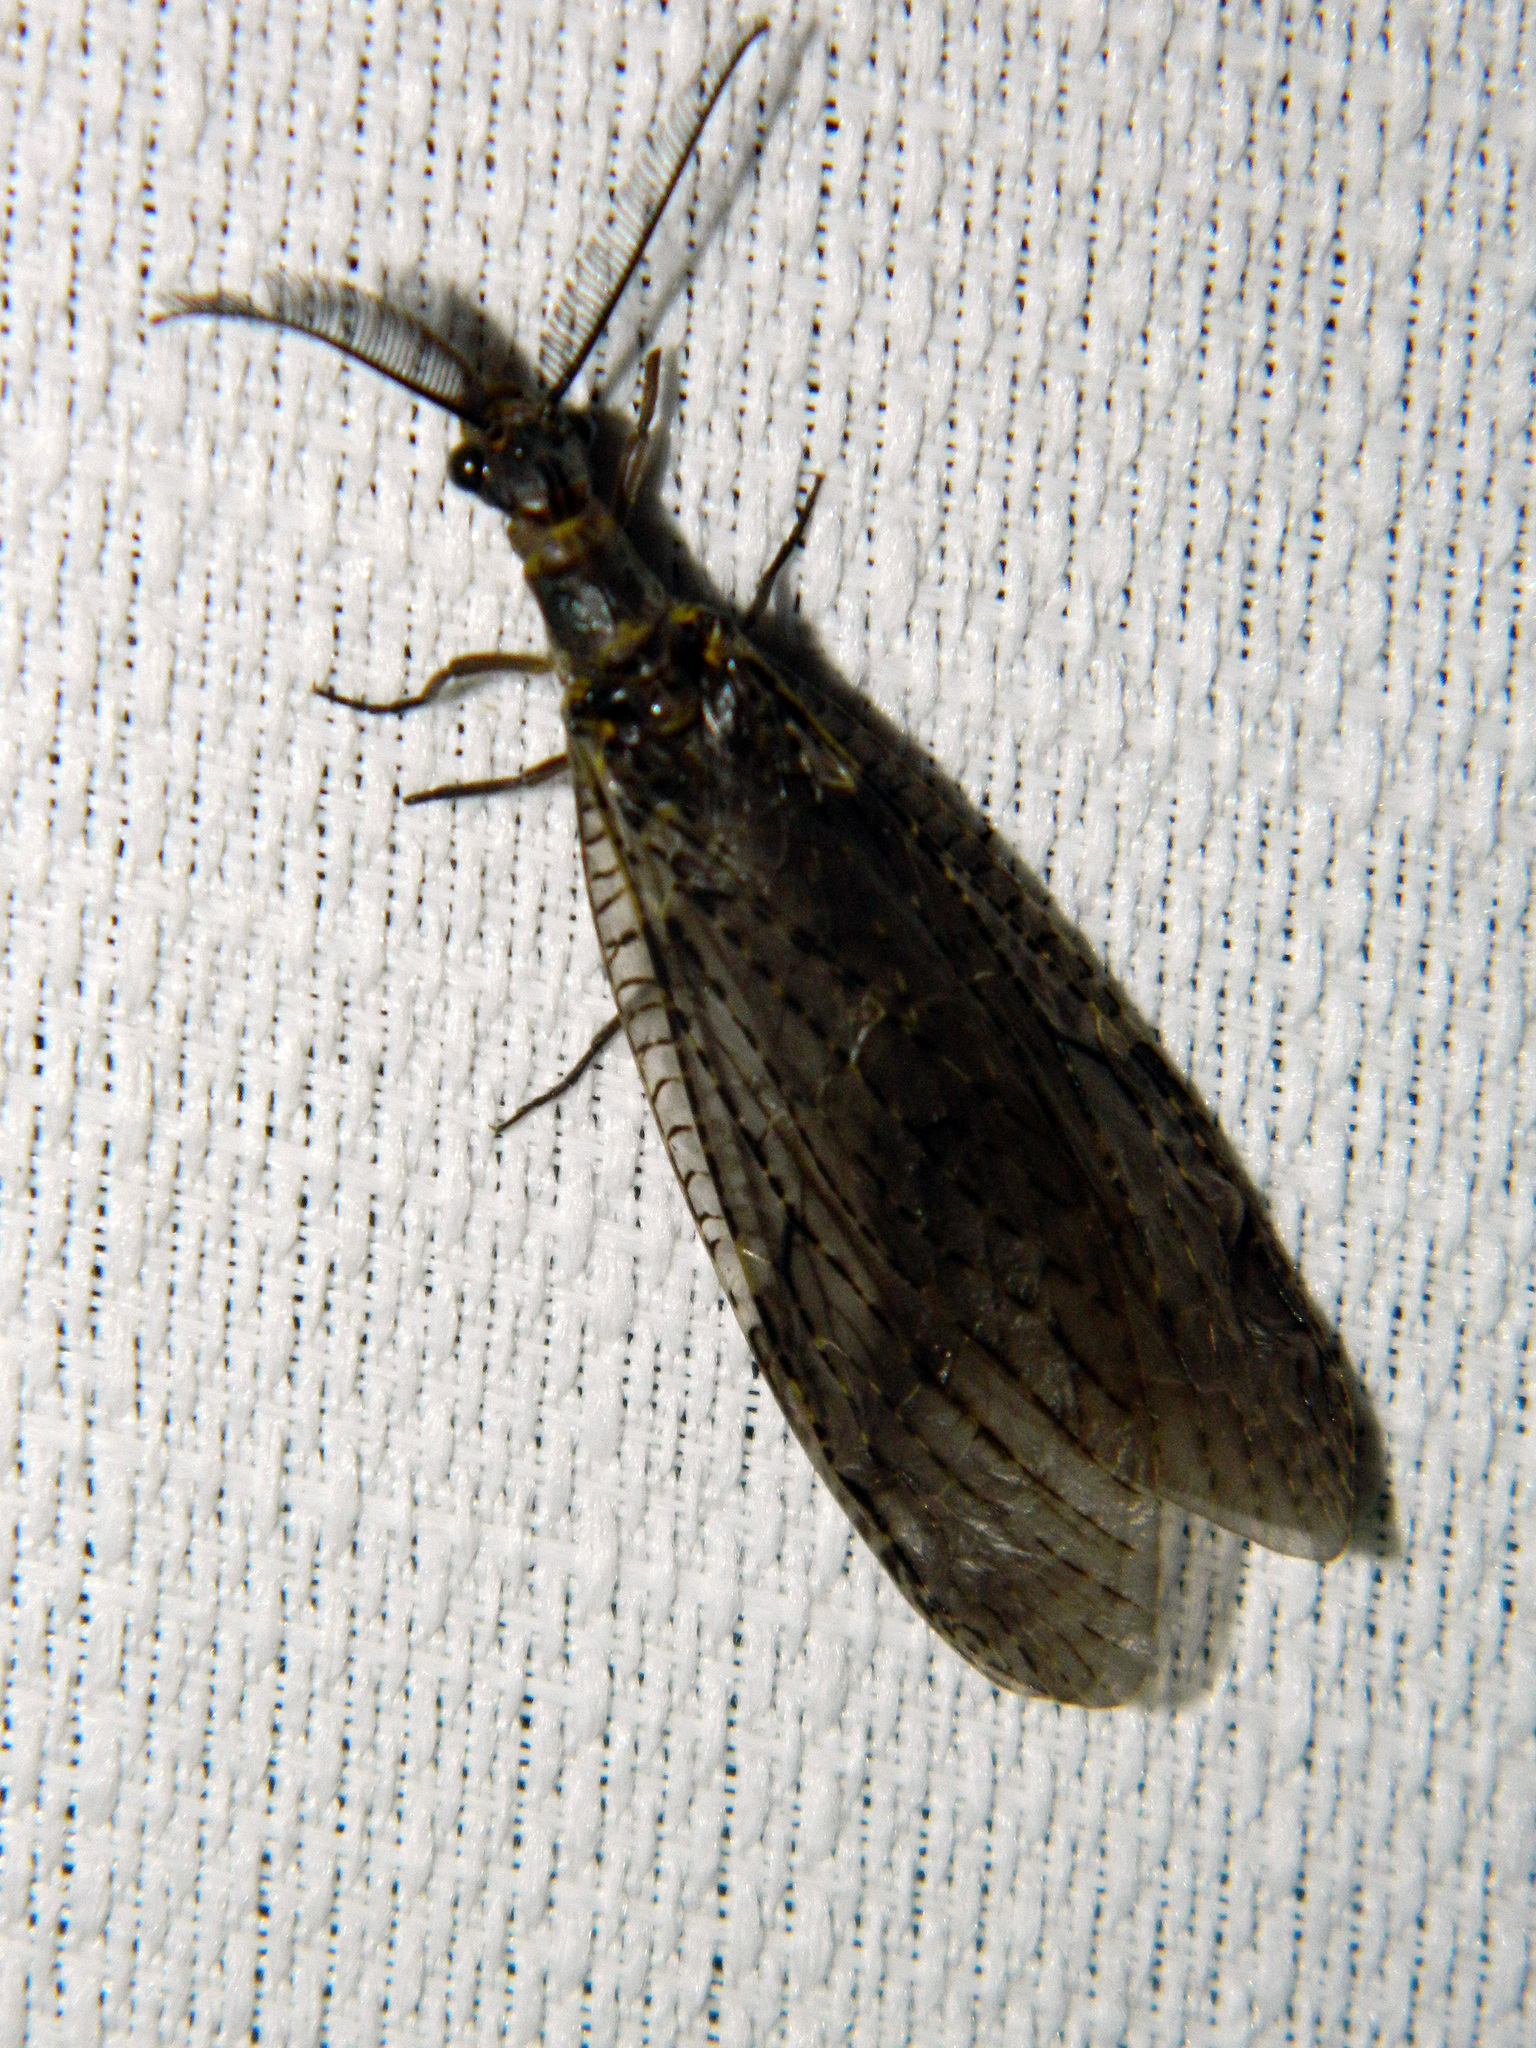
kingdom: Animalia
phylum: Arthropoda
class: Insecta
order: Megaloptera
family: Corydalidae
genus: Chauliodes
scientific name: Chauliodes rastricornis
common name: Spring fishfly
